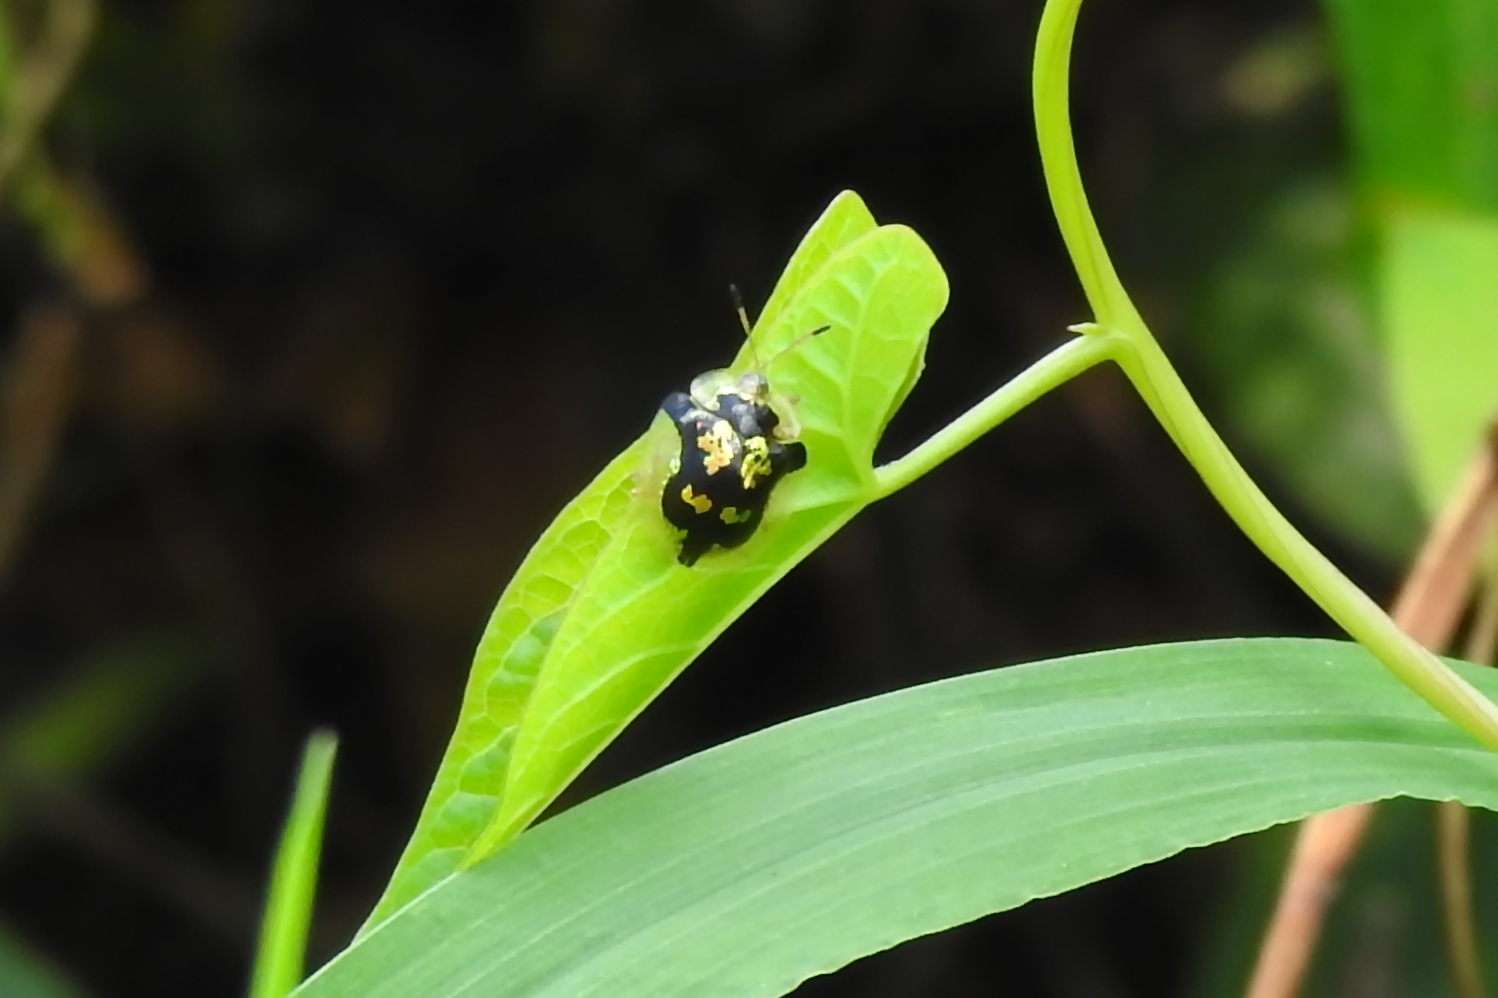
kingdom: Animalia
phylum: Arthropoda
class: Insecta
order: Coleoptera
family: Chrysomelidae
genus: Deloyala
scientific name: Deloyala guttata
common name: Mottled tortoise beetle
